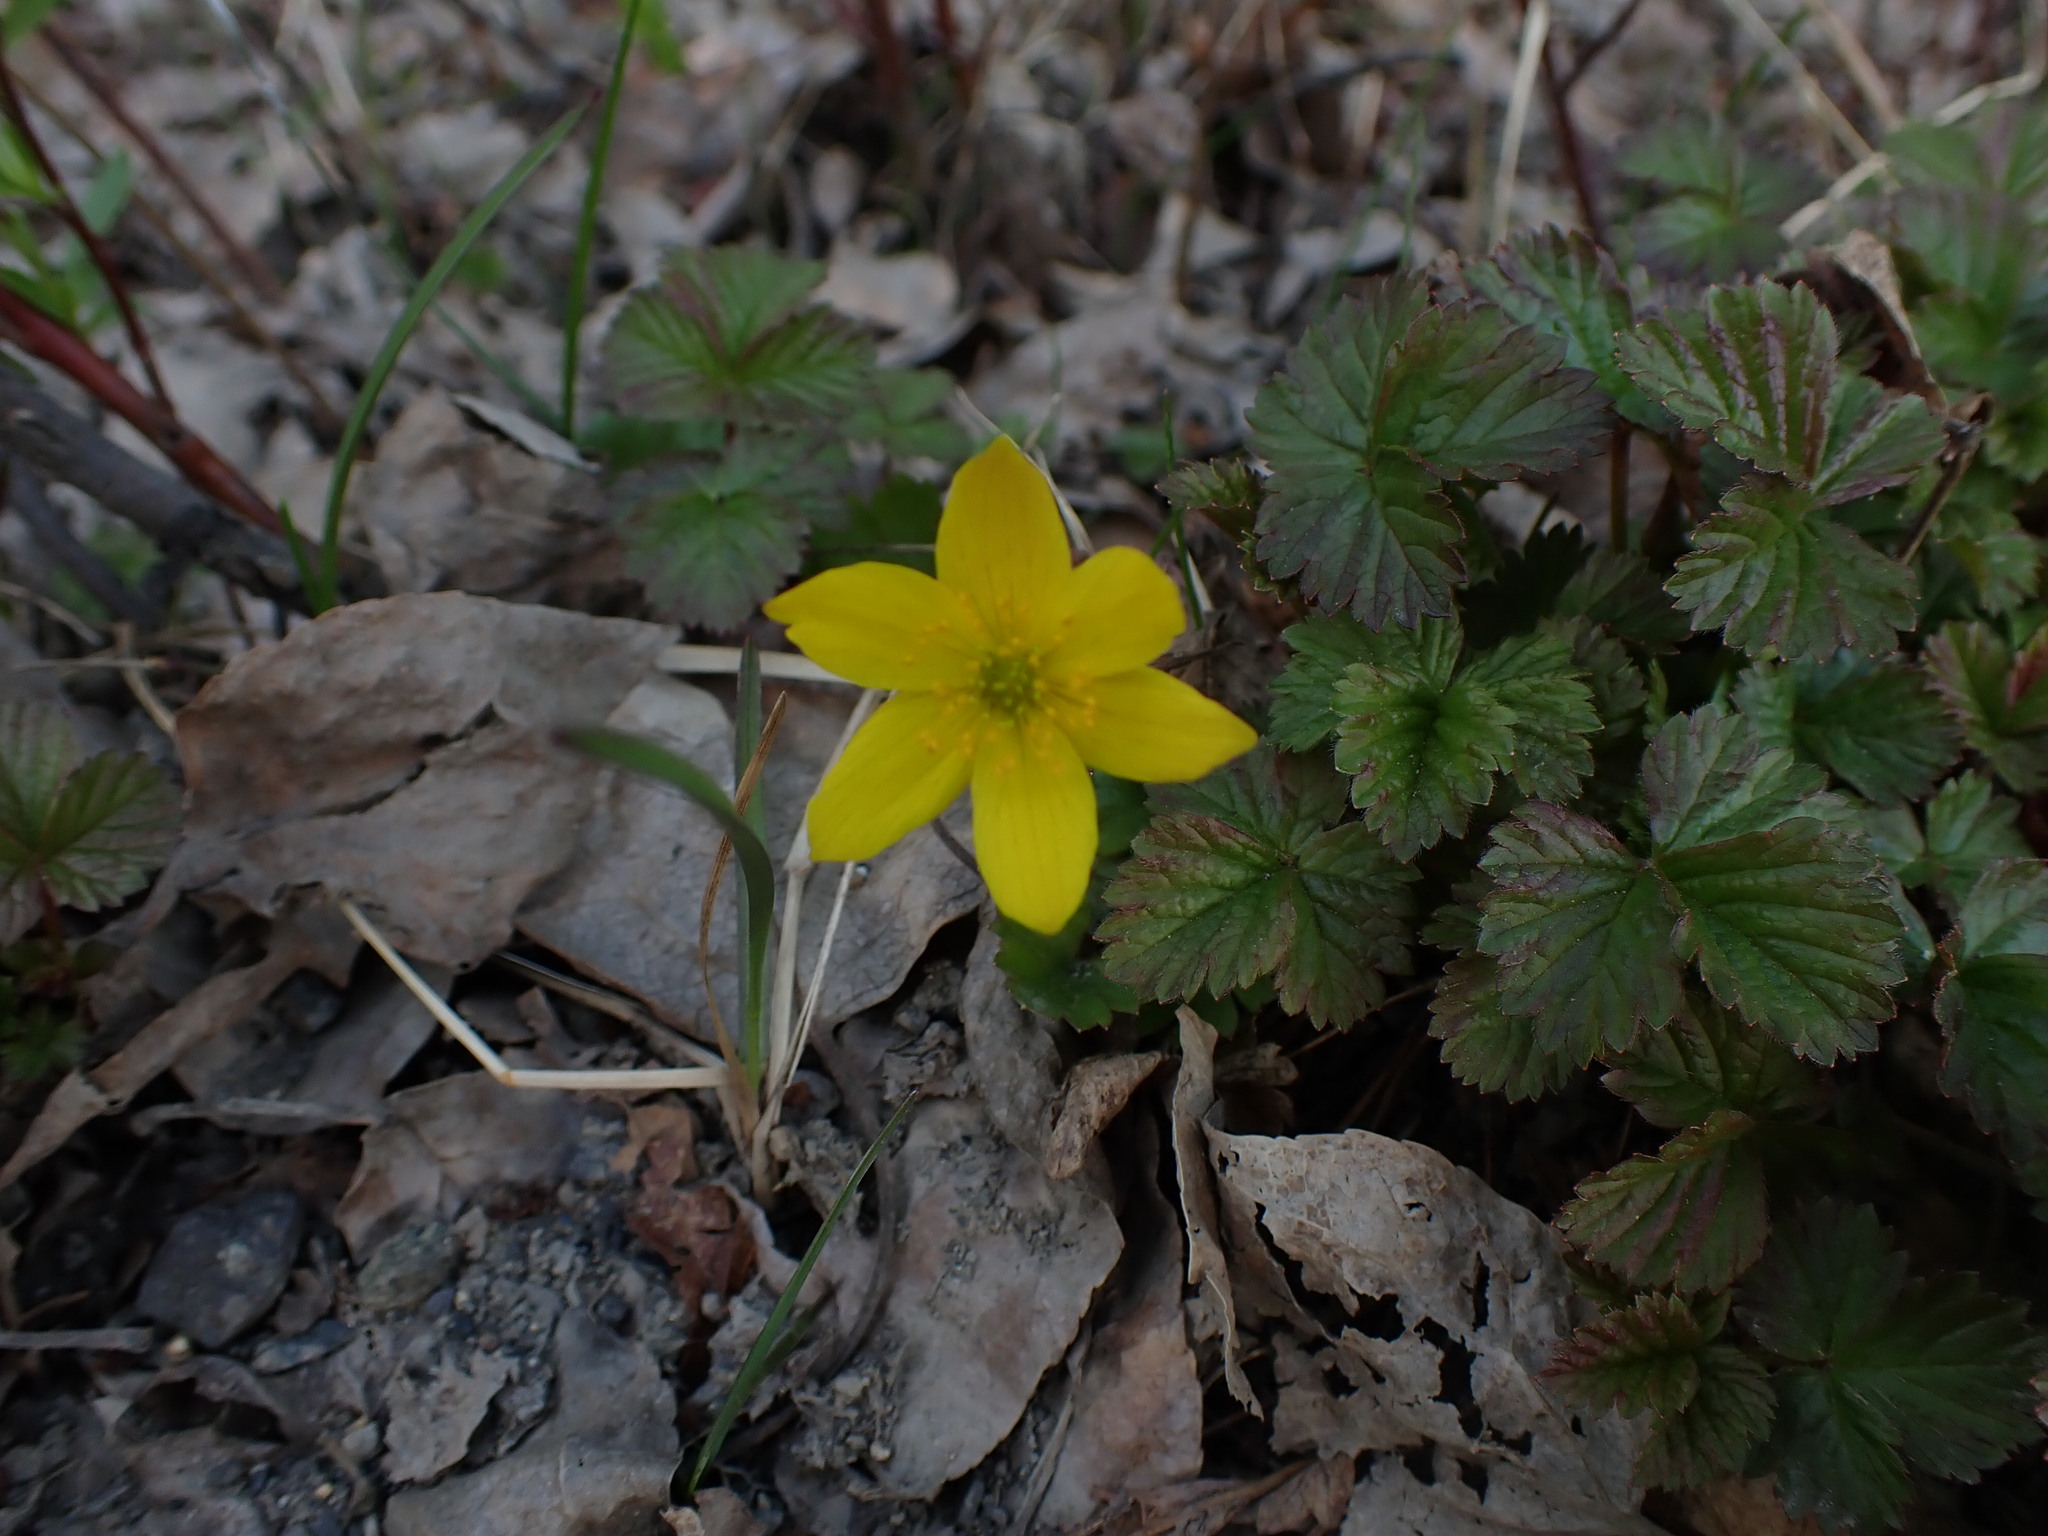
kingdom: Plantae
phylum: Tracheophyta
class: Magnoliopsida
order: Ranunculales
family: Ranunculaceae
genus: Anemonastrum
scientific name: Anemonastrum richardsonii
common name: Richardson's anemone
